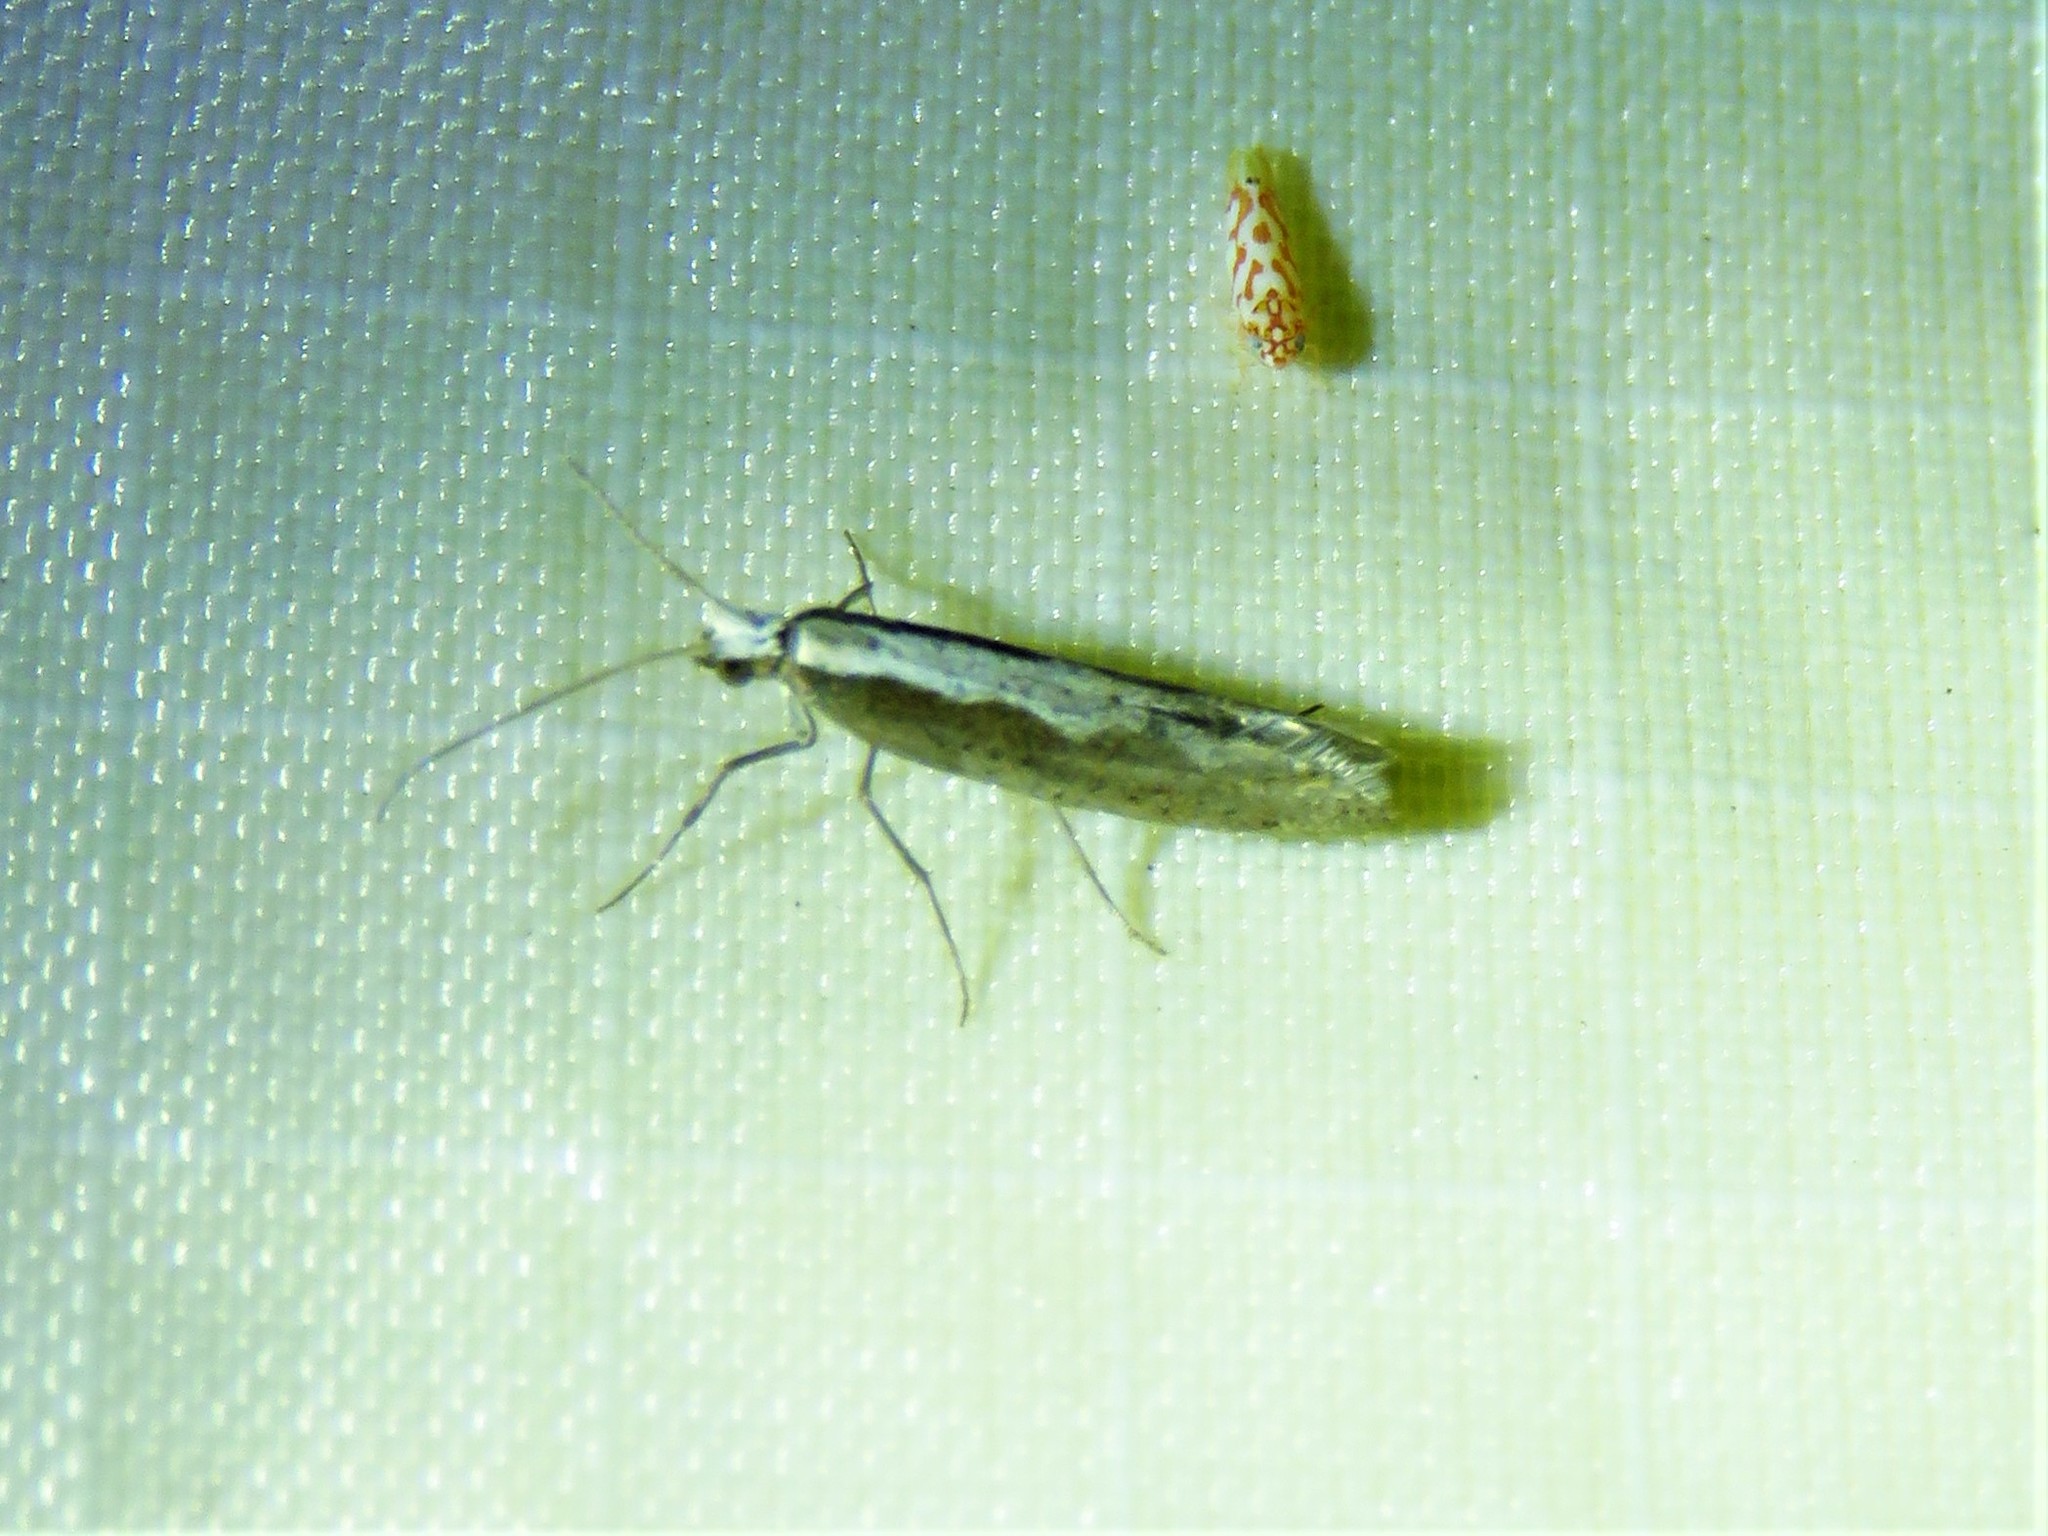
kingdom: Animalia
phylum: Arthropoda
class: Insecta
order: Lepidoptera
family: Plutellidae
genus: Plutella
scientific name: Plutella xylostella
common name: Diamond-back moth
